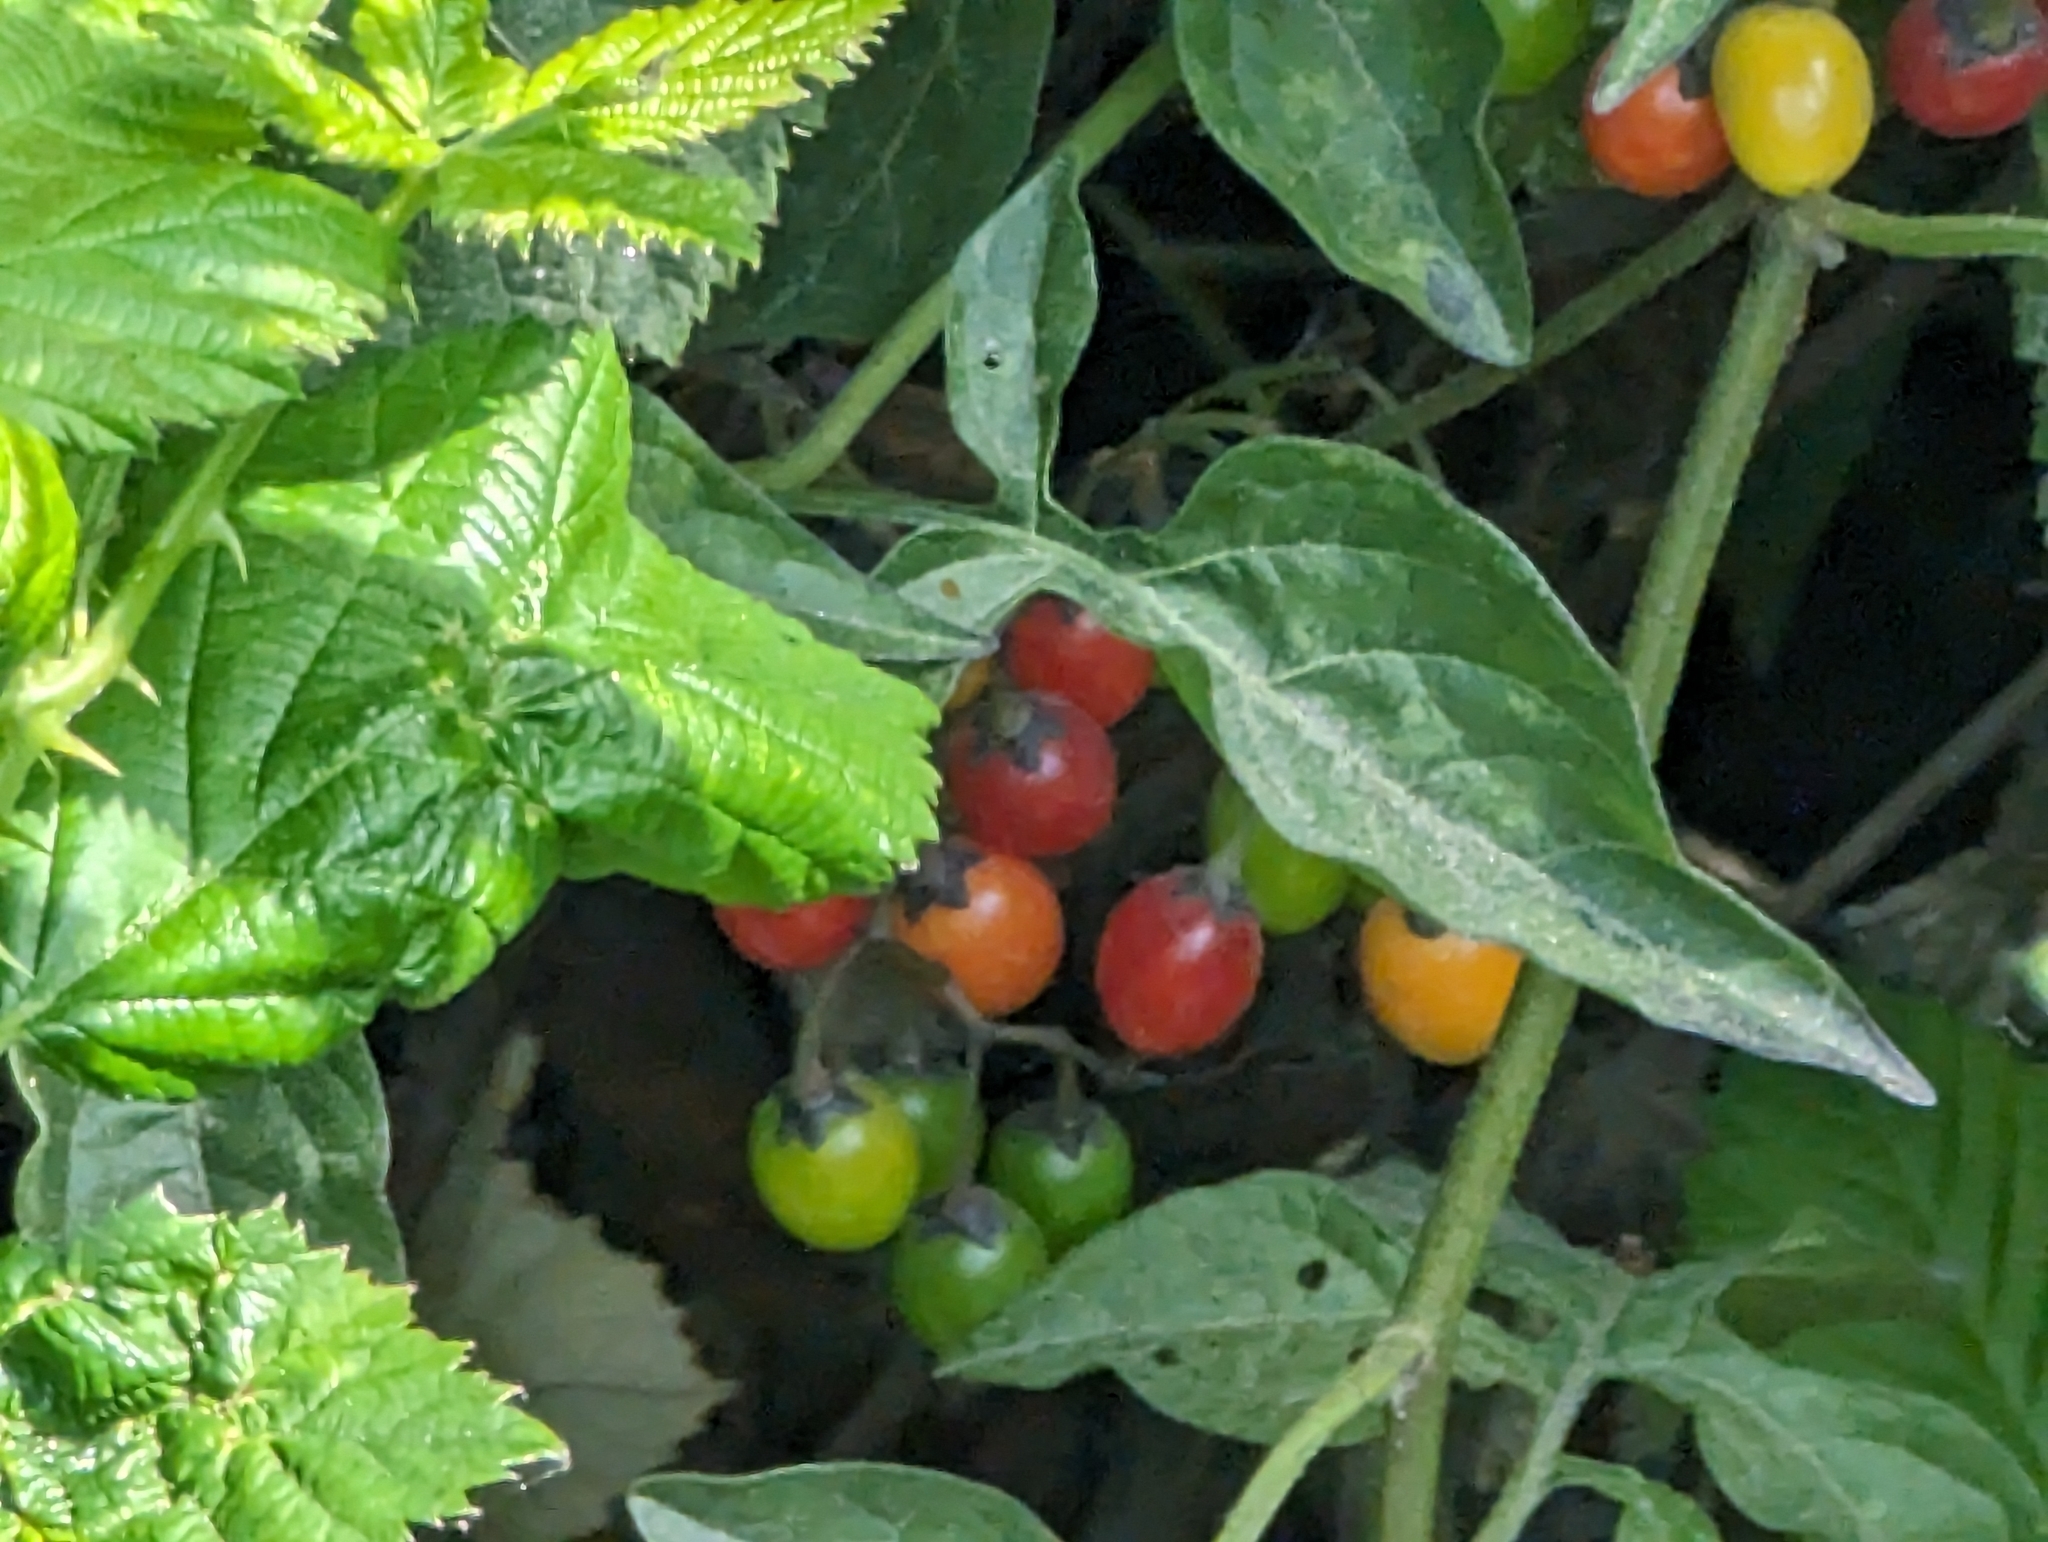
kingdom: Plantae
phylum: Tracheophyta
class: Magnoliopsida
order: Solanales
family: Solanaceae
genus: Solanum
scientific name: Solanum dulcamara
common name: Climbing nightshade
